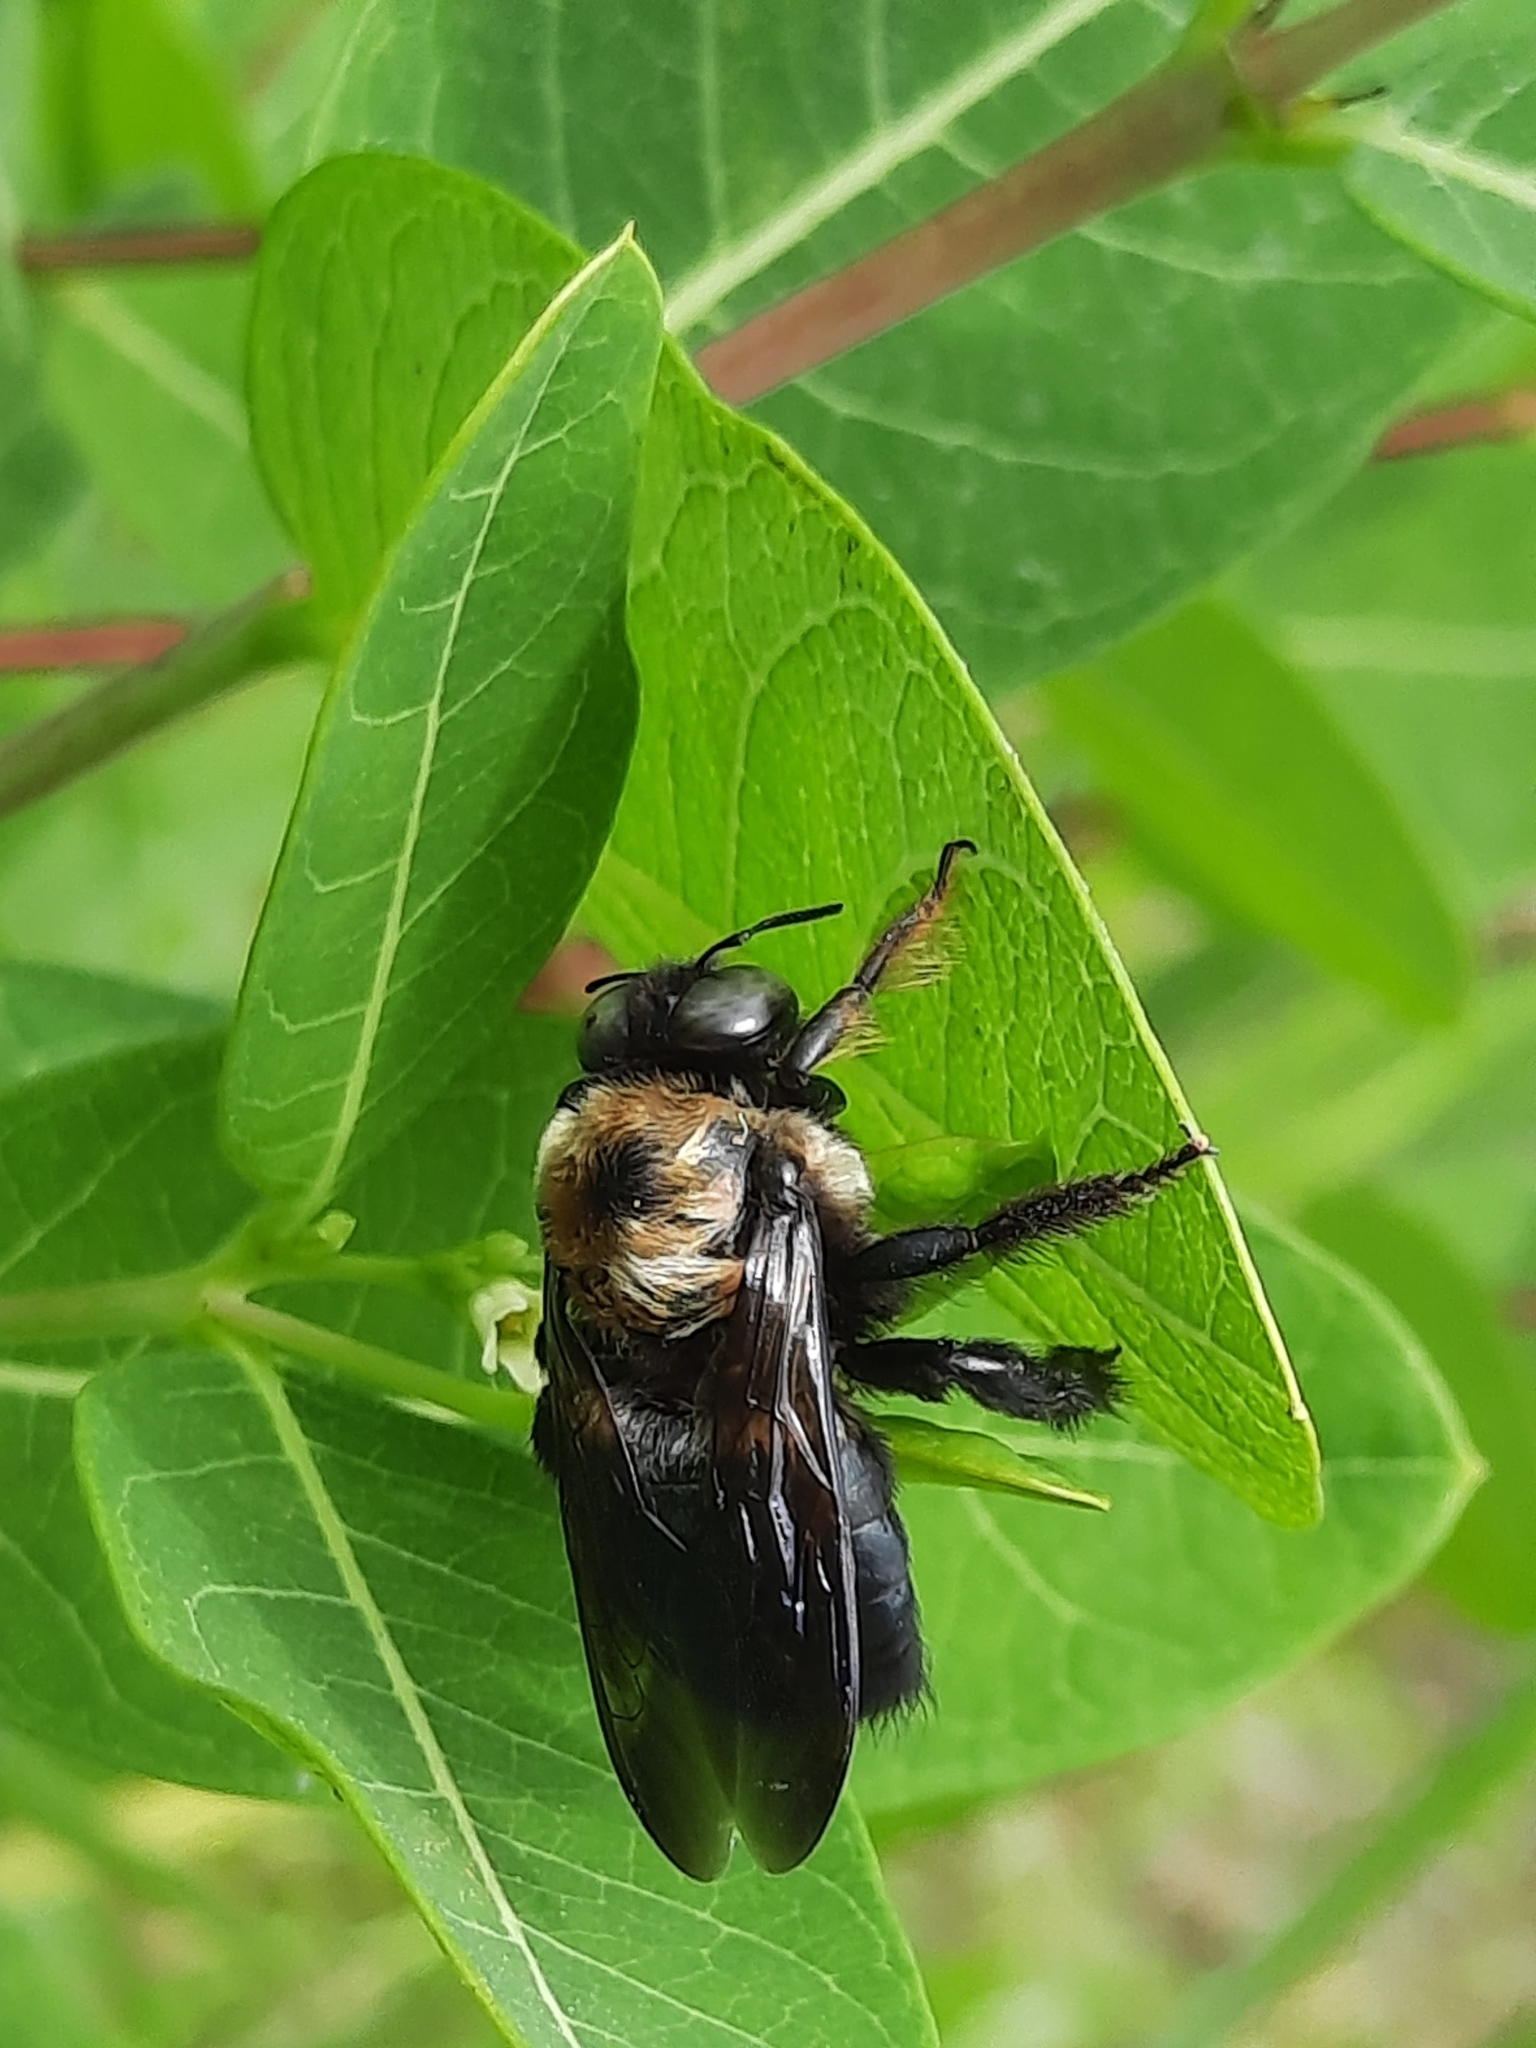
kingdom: Animalia
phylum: Arthropoda
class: Insecta
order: Hymenoptera
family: Apidae
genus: Xylocopa
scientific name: Xylocopa virginica
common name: Carpenter bee
